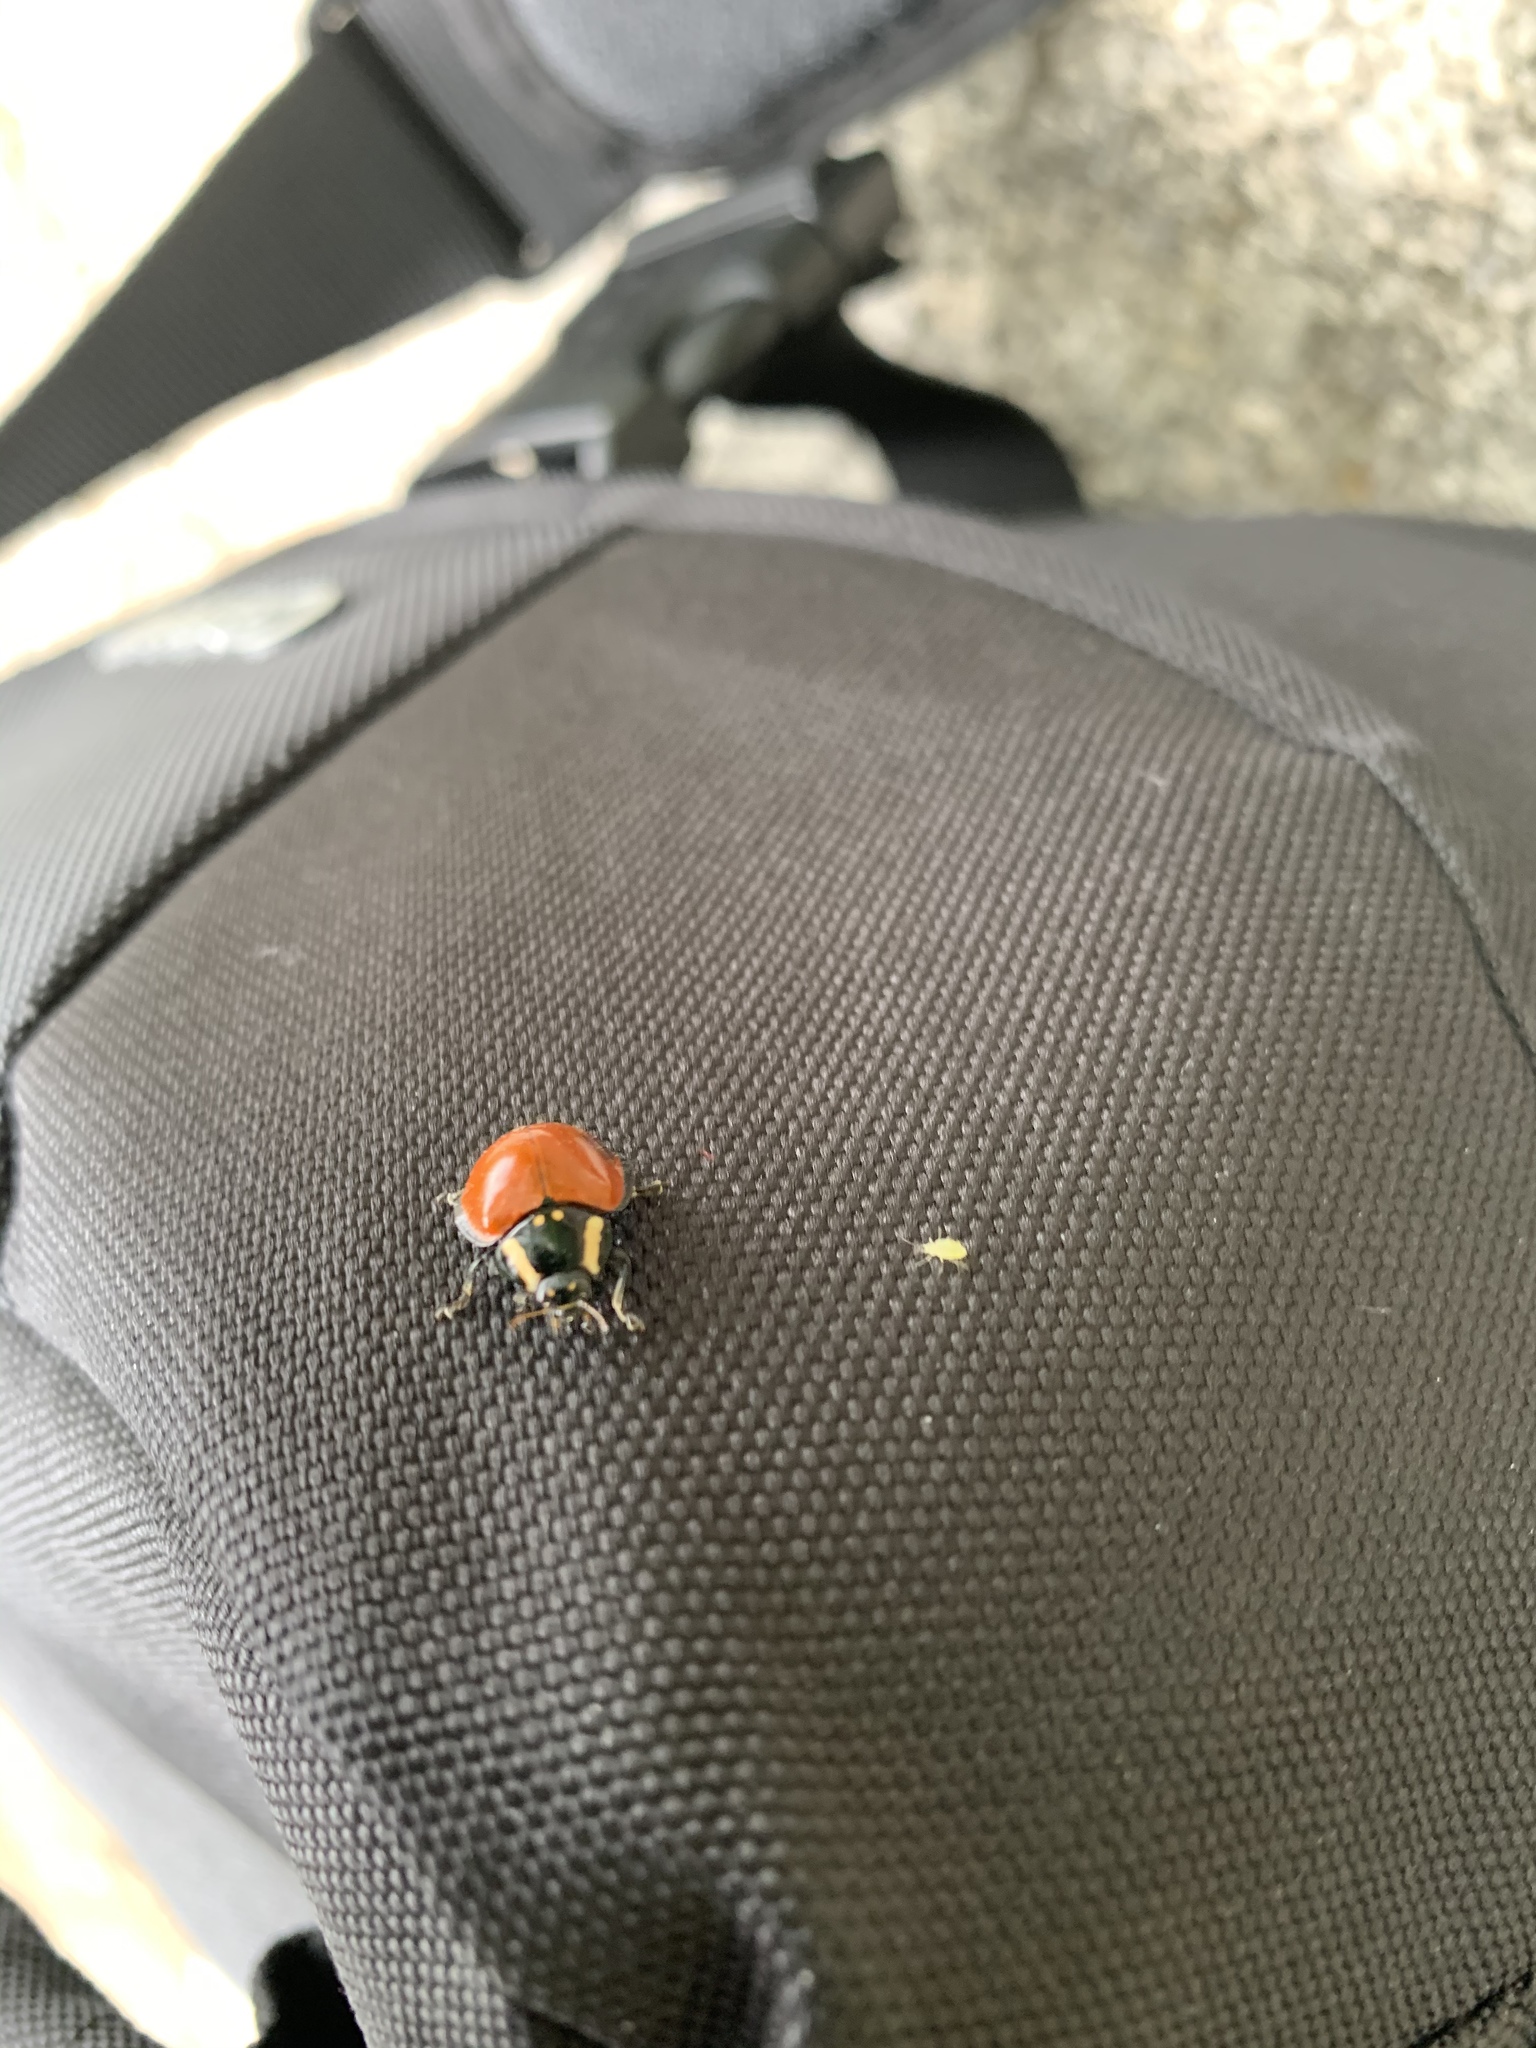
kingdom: Animalia
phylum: Arthropoda
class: Insecta
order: Coleoptera
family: Coccinellidae
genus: Anatis
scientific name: Anatis lecontei
